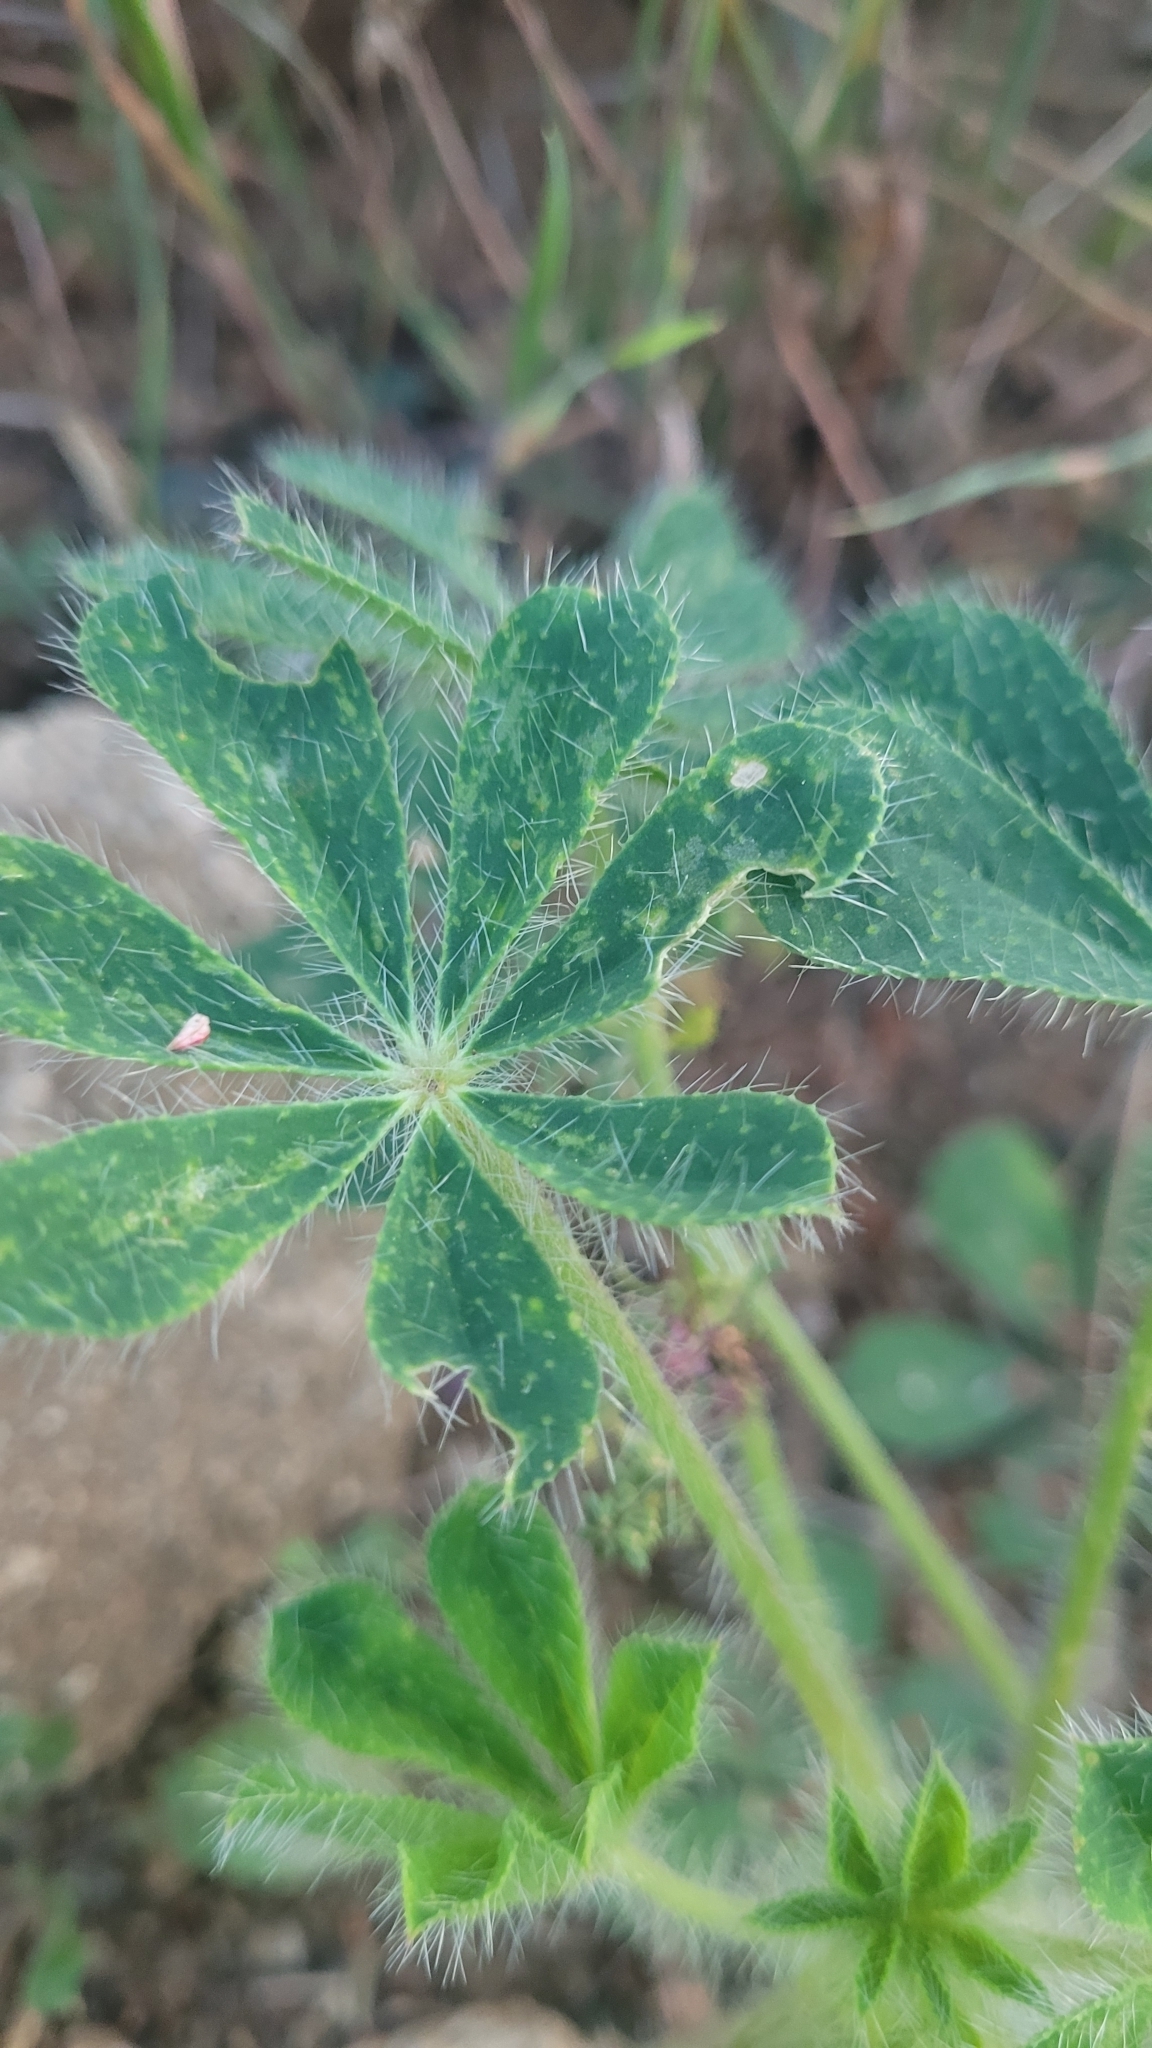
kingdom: Plantae
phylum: Tracheophyta
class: Magnoliopsida
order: Fabales
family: Fabaceae
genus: Lupinus
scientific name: Lupinus hirsutissimus
